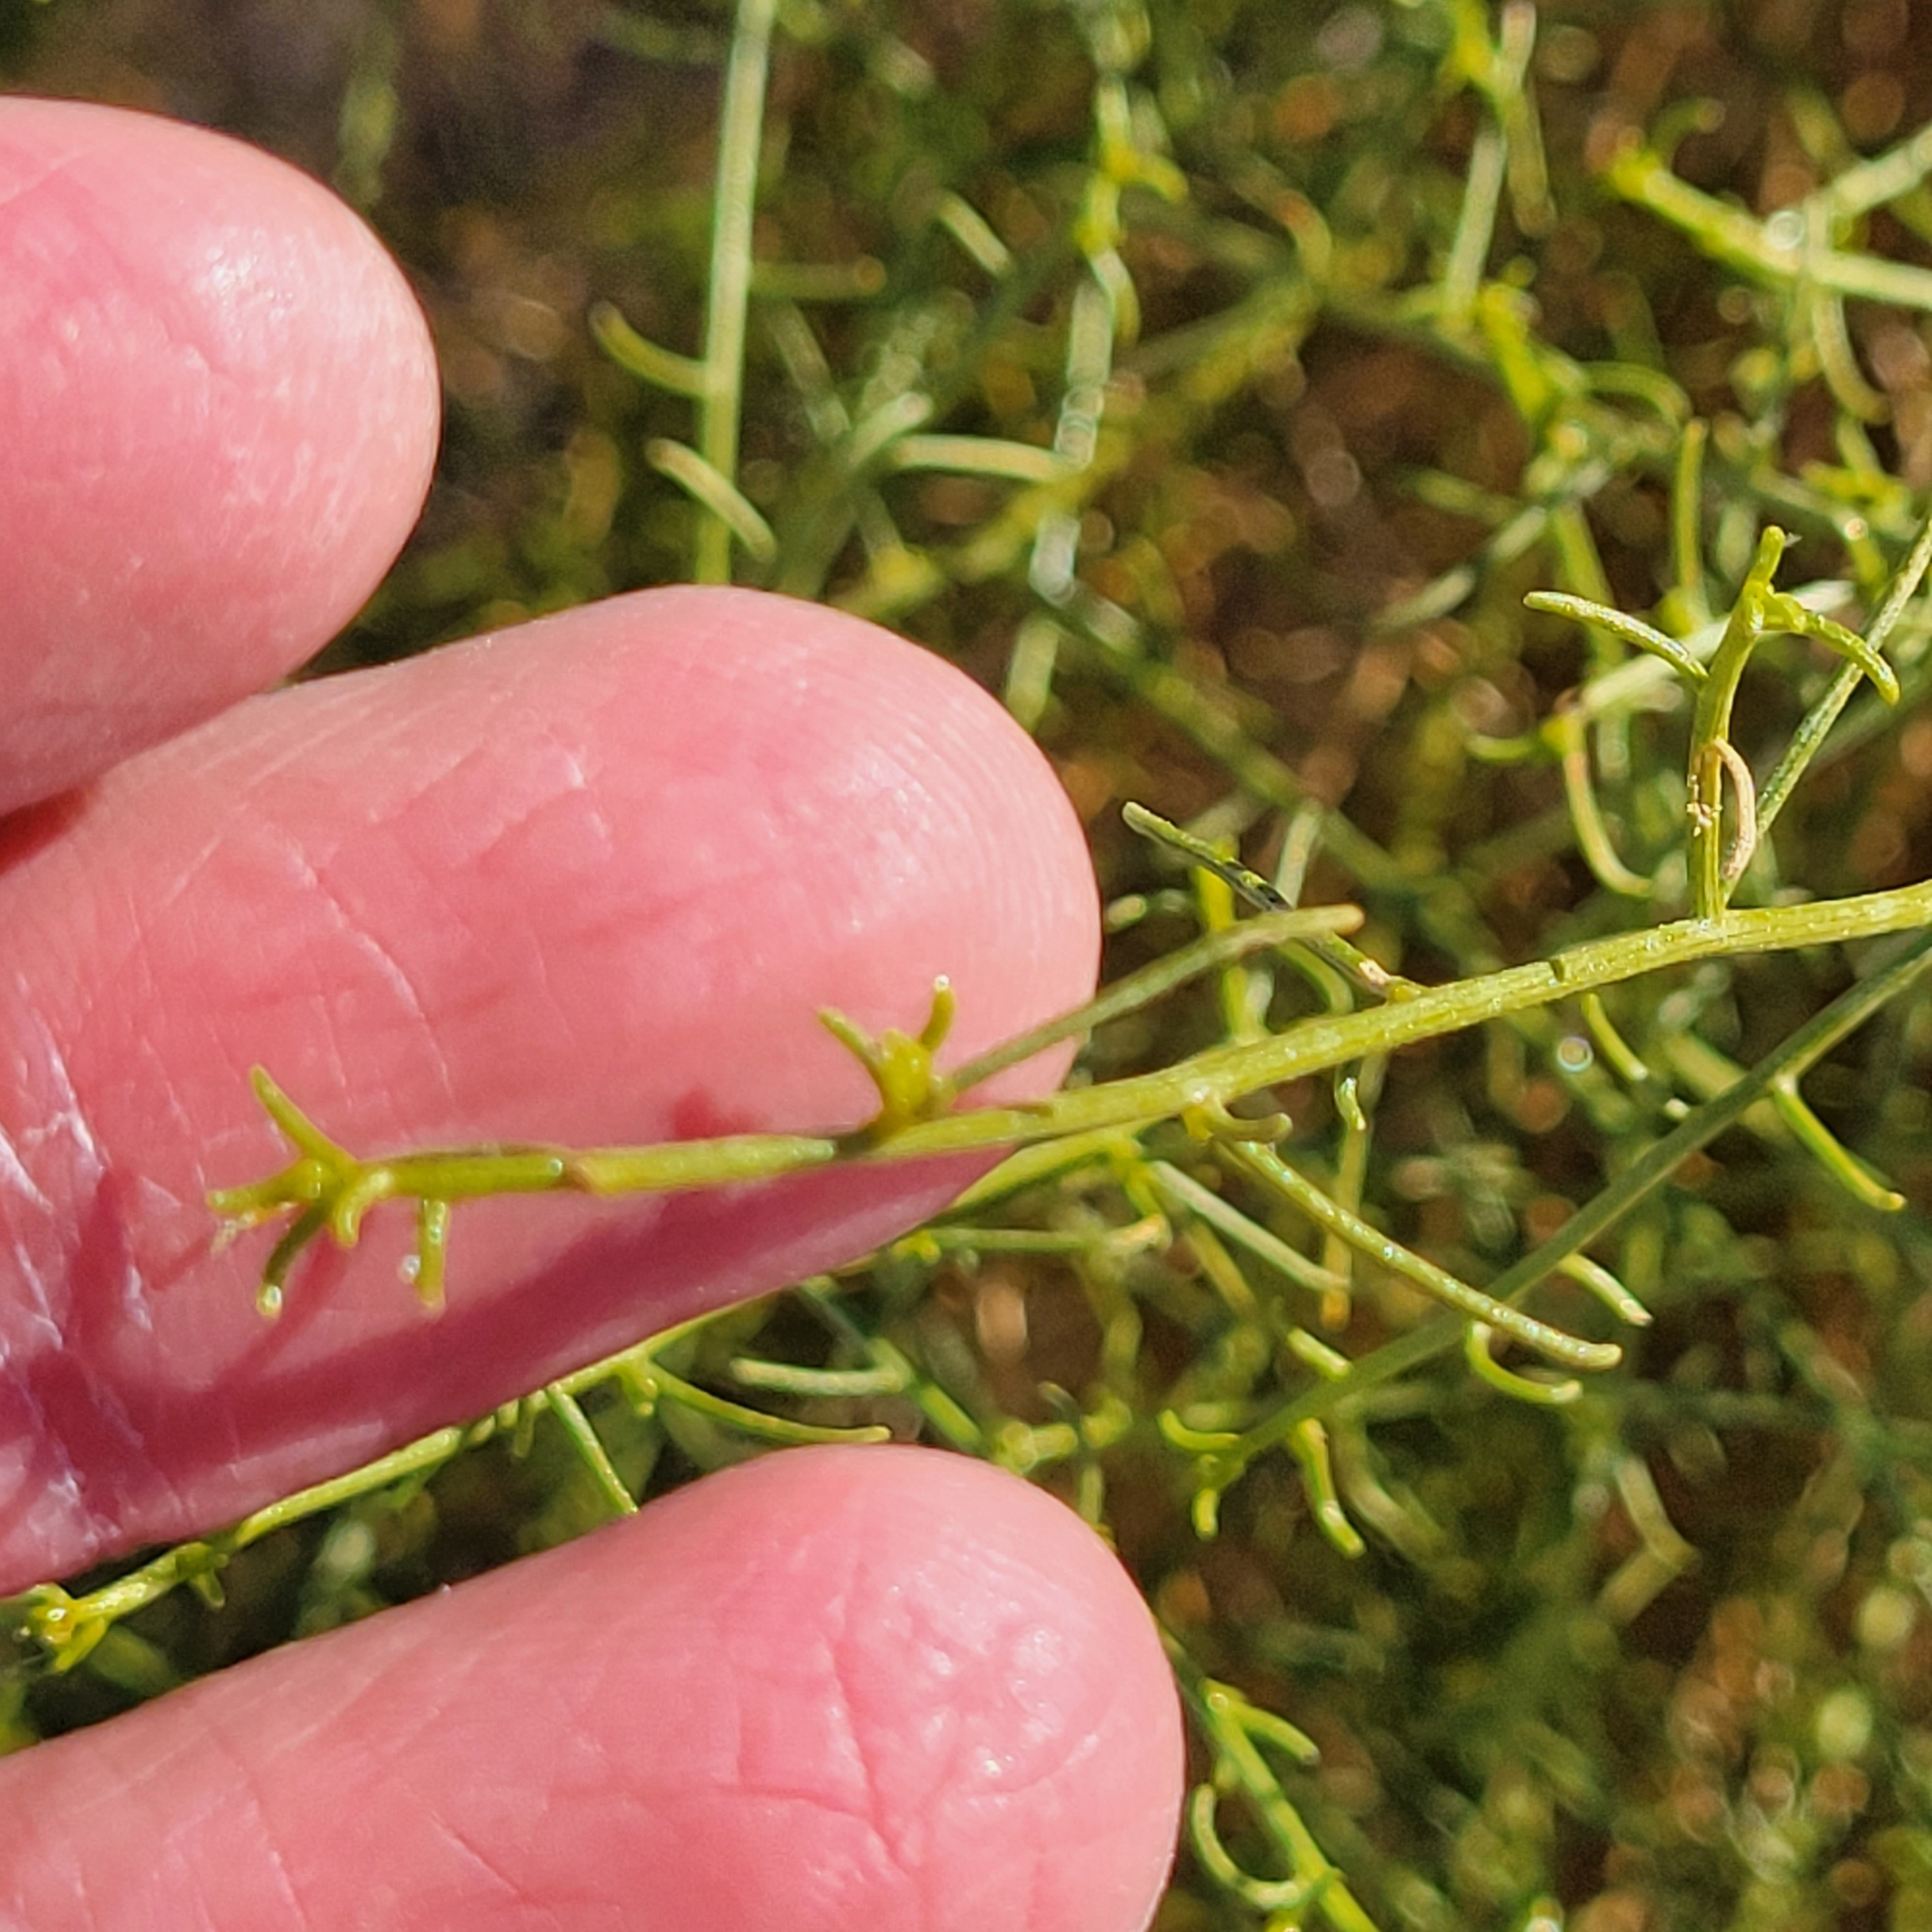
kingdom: Plantae
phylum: Tracheophyta
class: Magnoliopsida
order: Asterales
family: Asteraceae
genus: Ambrosia
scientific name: Ambrosia salsola
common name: Burrobrush
